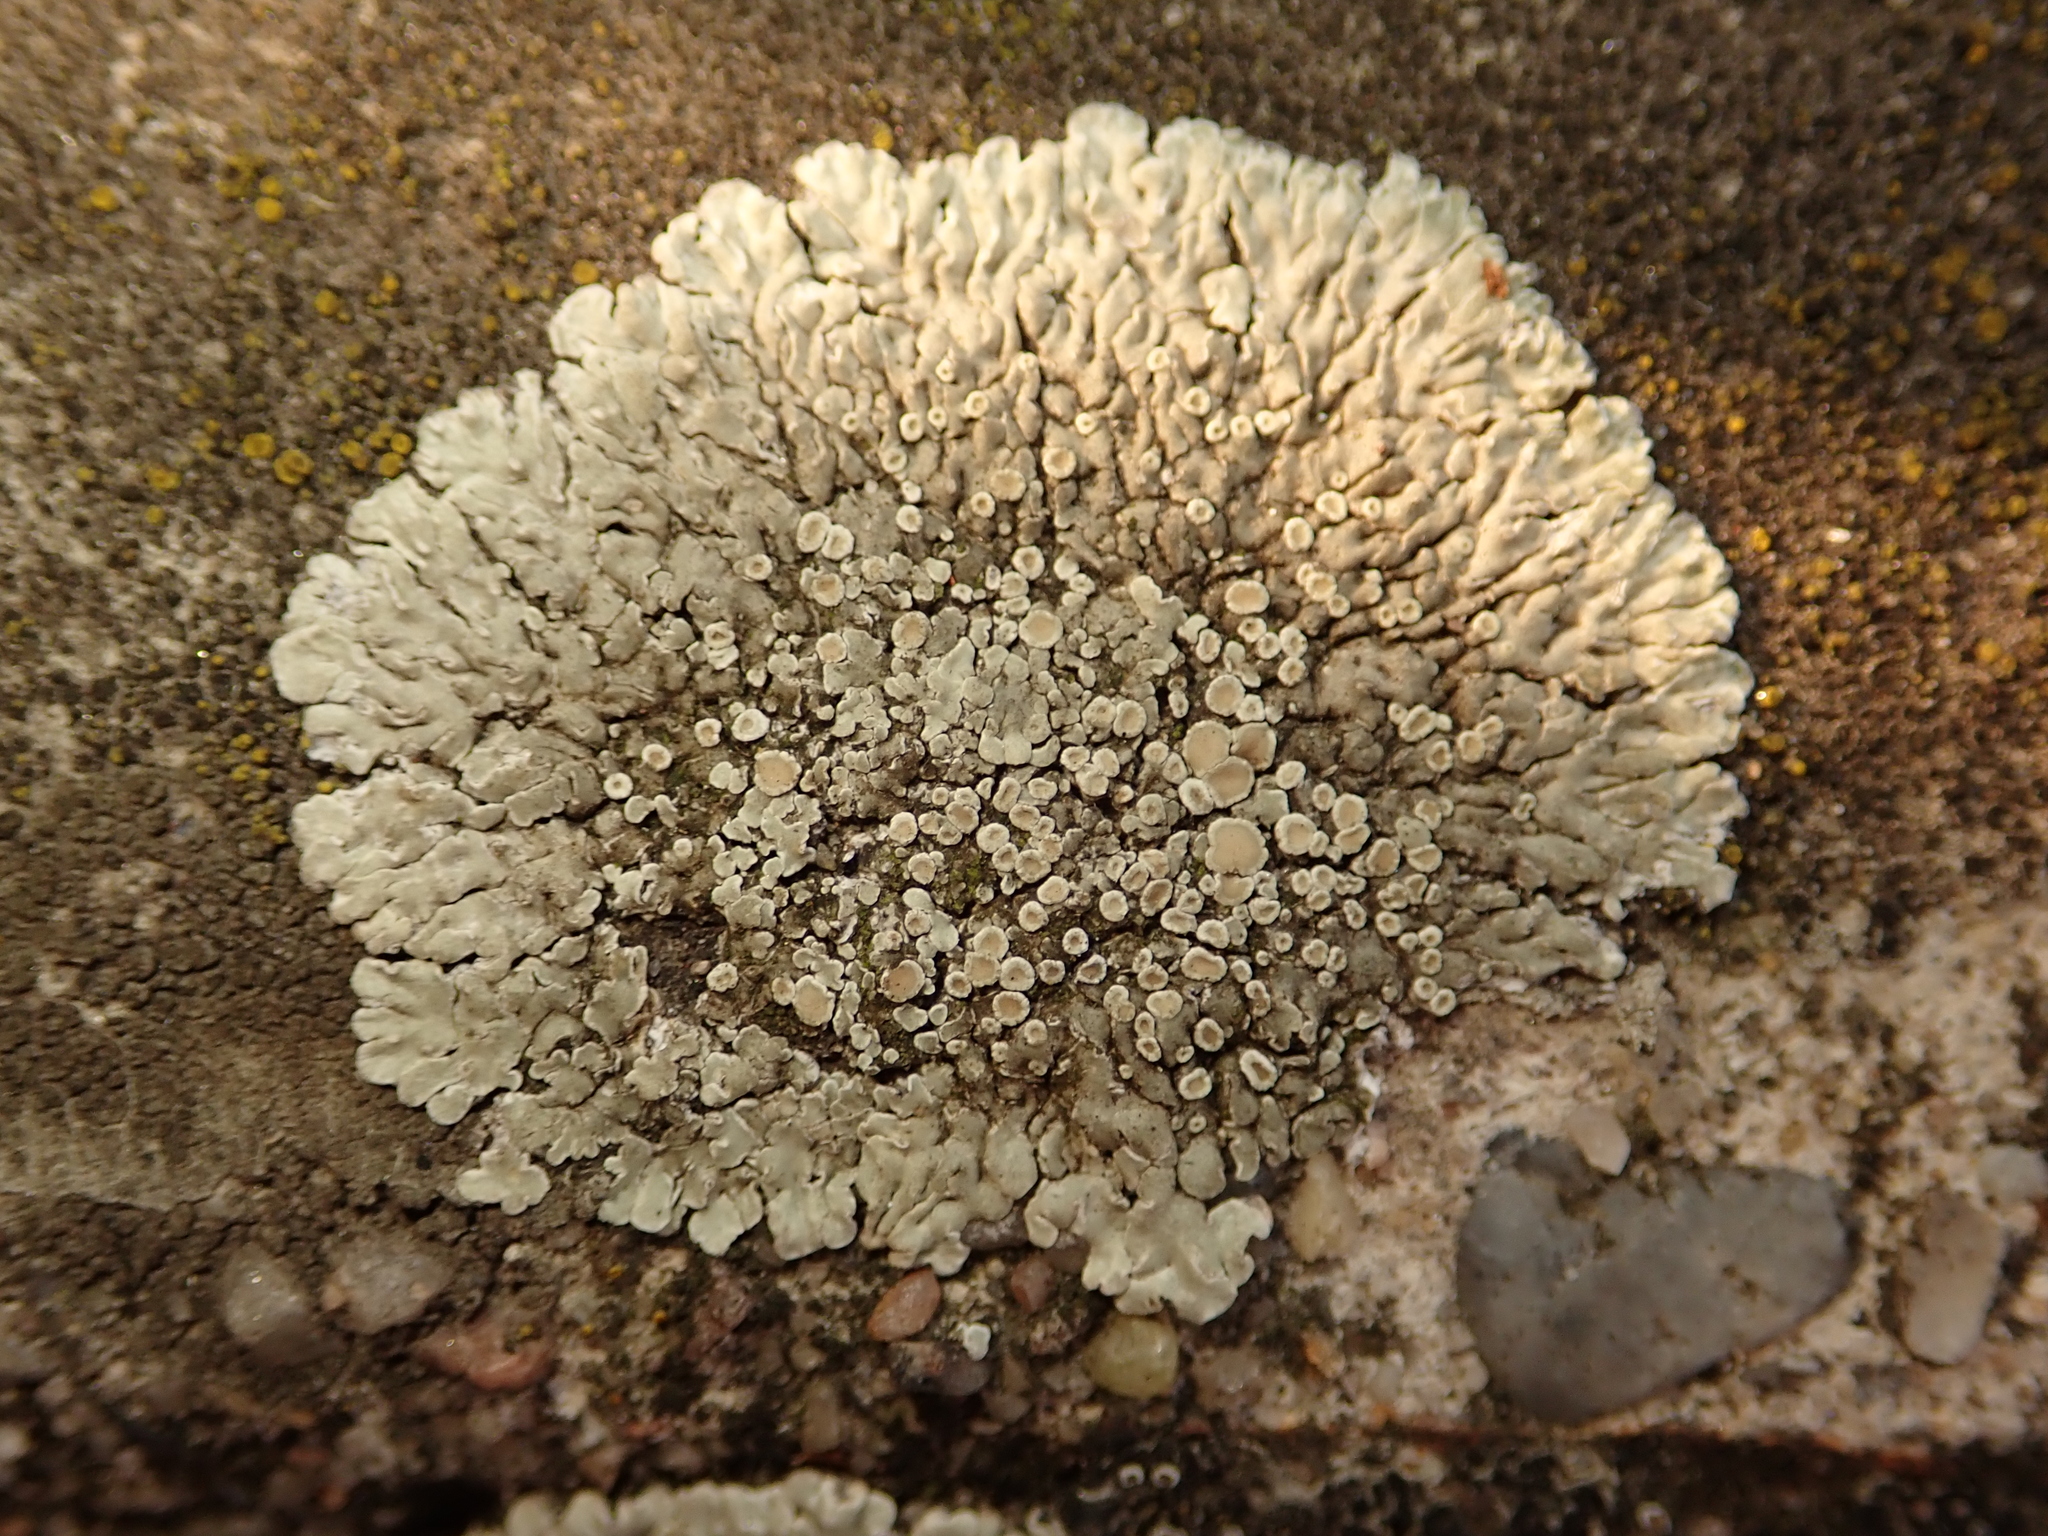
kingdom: Fungi
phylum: Ascomycota
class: Lecanoromycetes
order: Lecanorales
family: Lecanoraceae
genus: Protoparmeliopsis
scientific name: Protoparmeliopsis muralis
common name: Stonewall rim lichen
